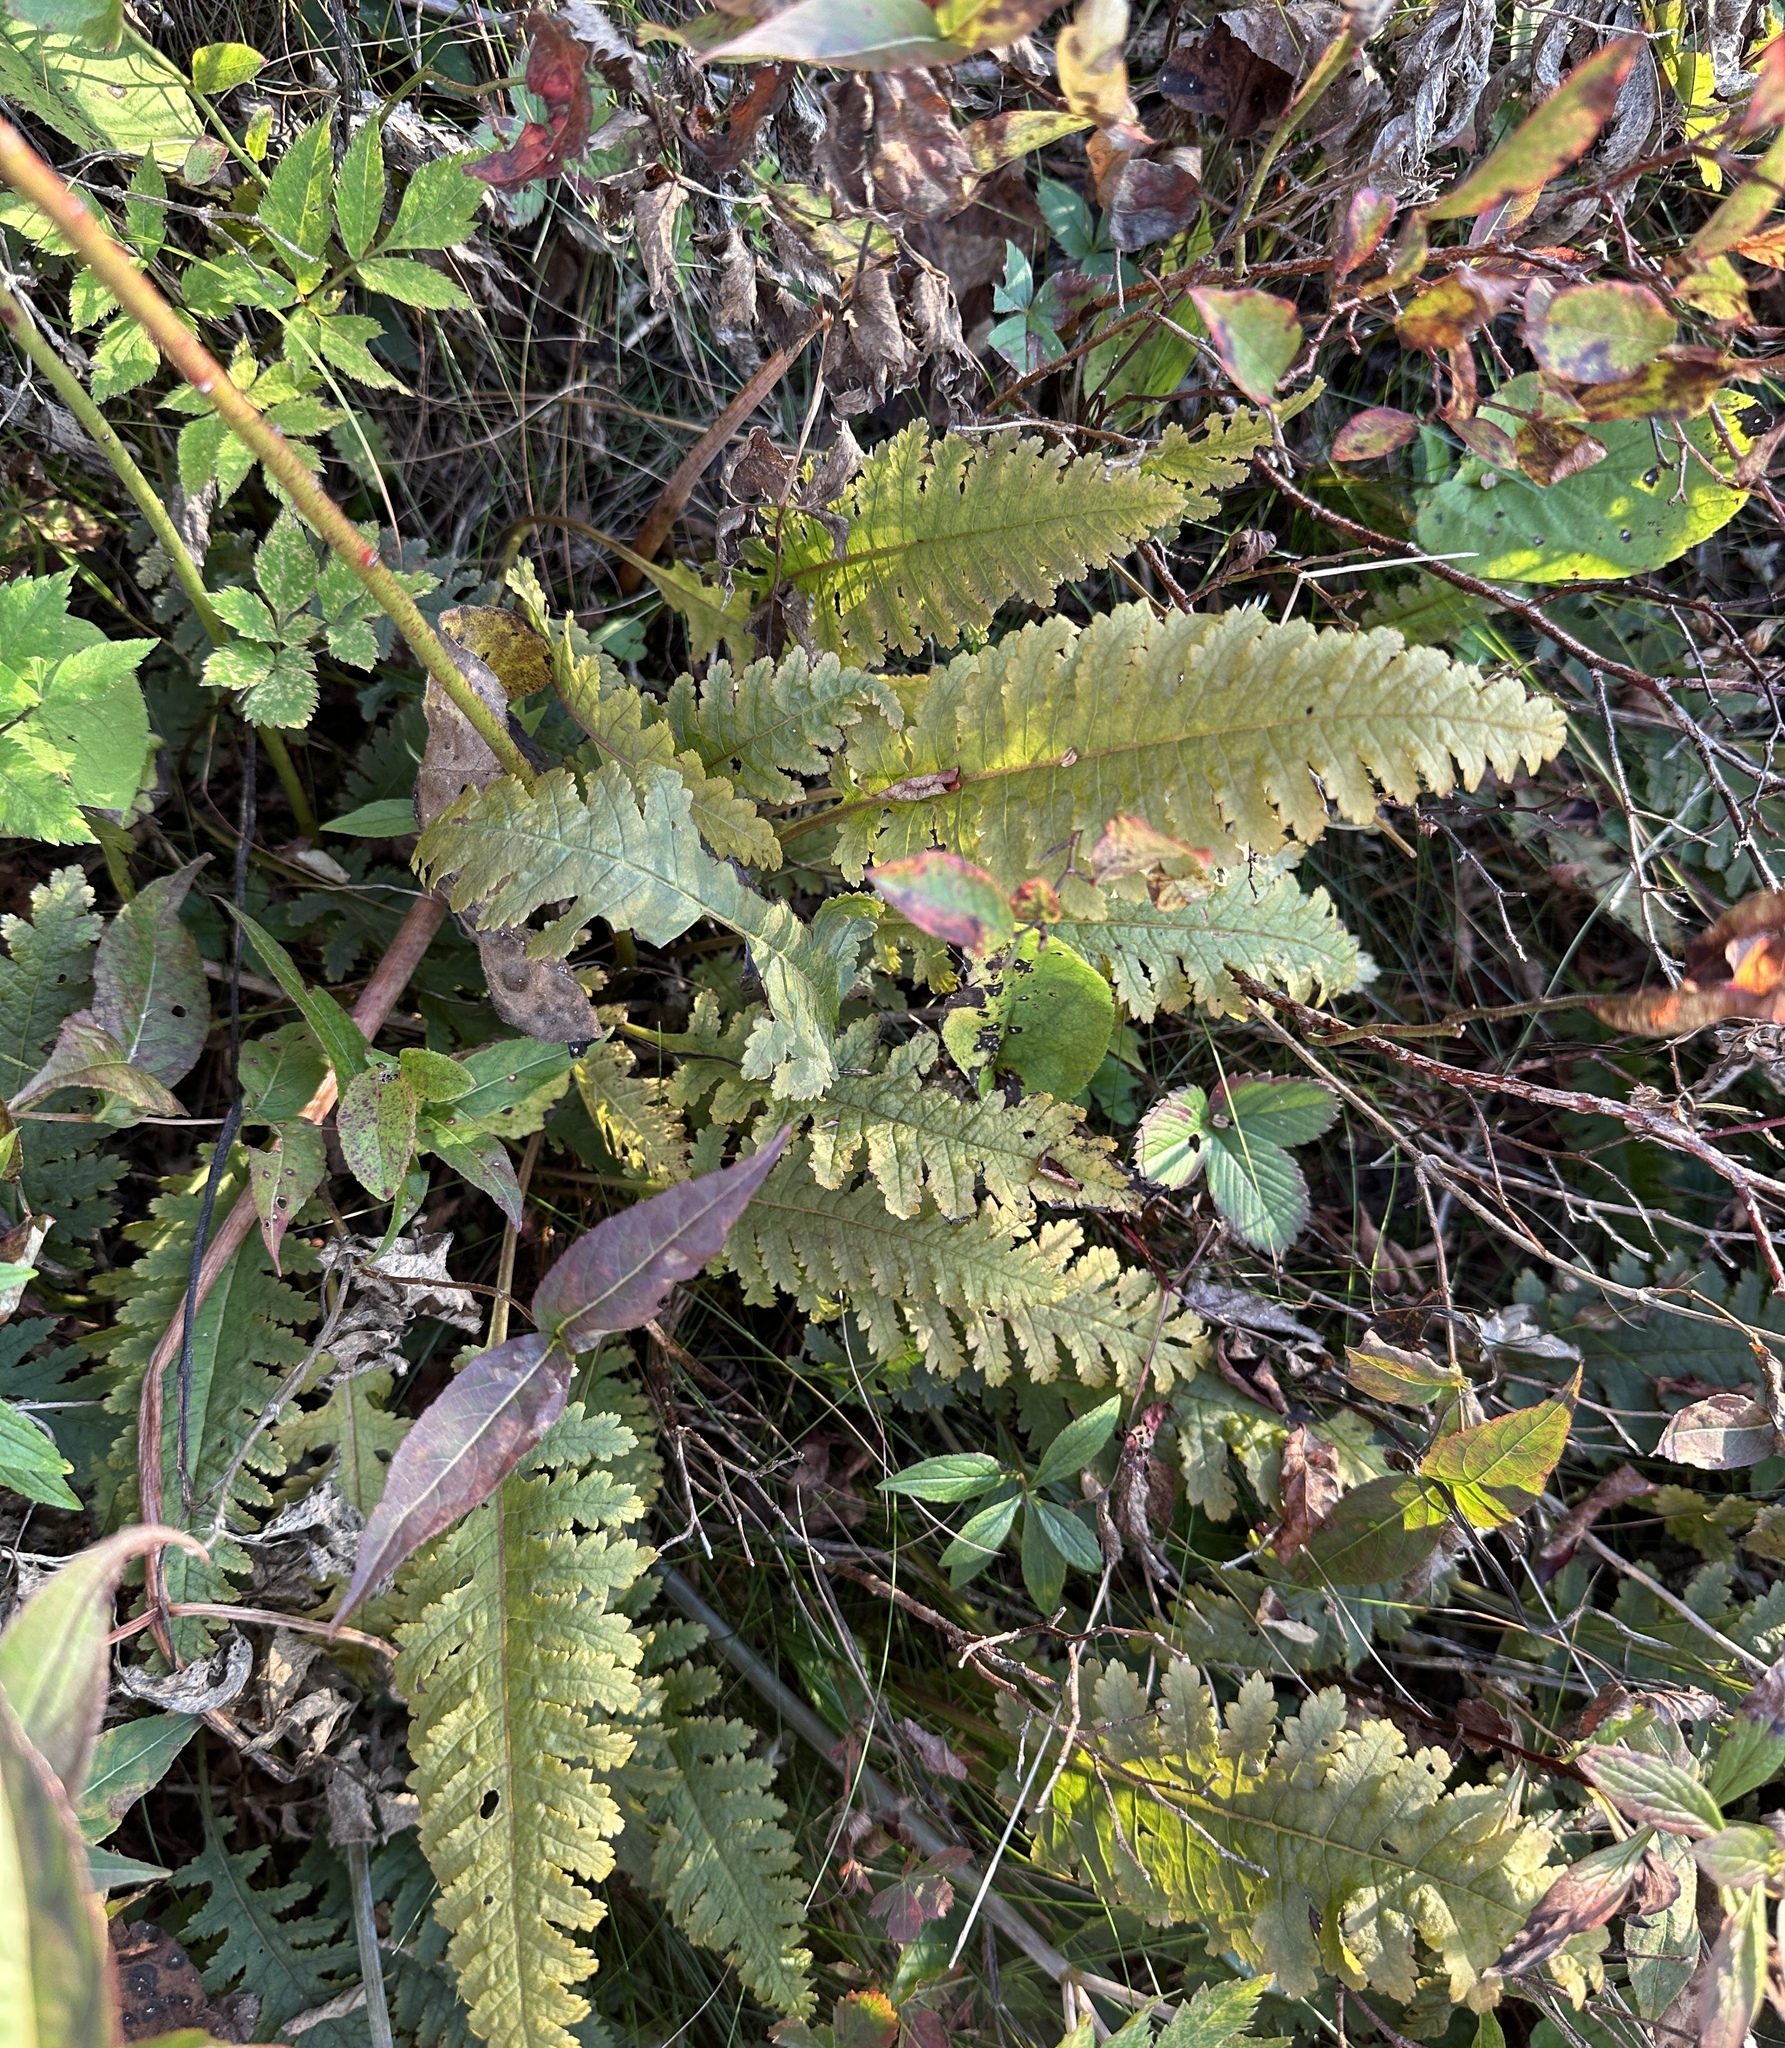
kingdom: Plantae
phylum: Tracheophyta
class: Magnoliopsida
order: Lamiales
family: Orobanchaceae
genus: Pedicularis
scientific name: Pedicularis canadensis
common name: Early lousewort
